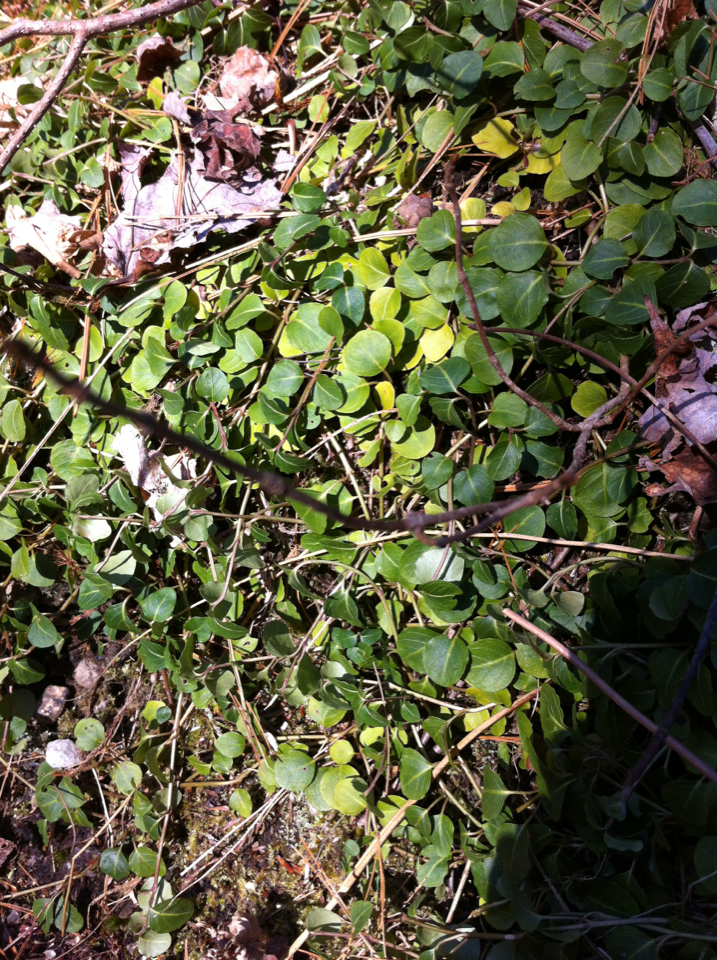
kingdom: Plantae
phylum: Tracheophyta
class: Magnoliopsida
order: Gentianales
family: Rubiaceae
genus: Mitchella
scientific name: Mitchella repens
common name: Partridge-berry
